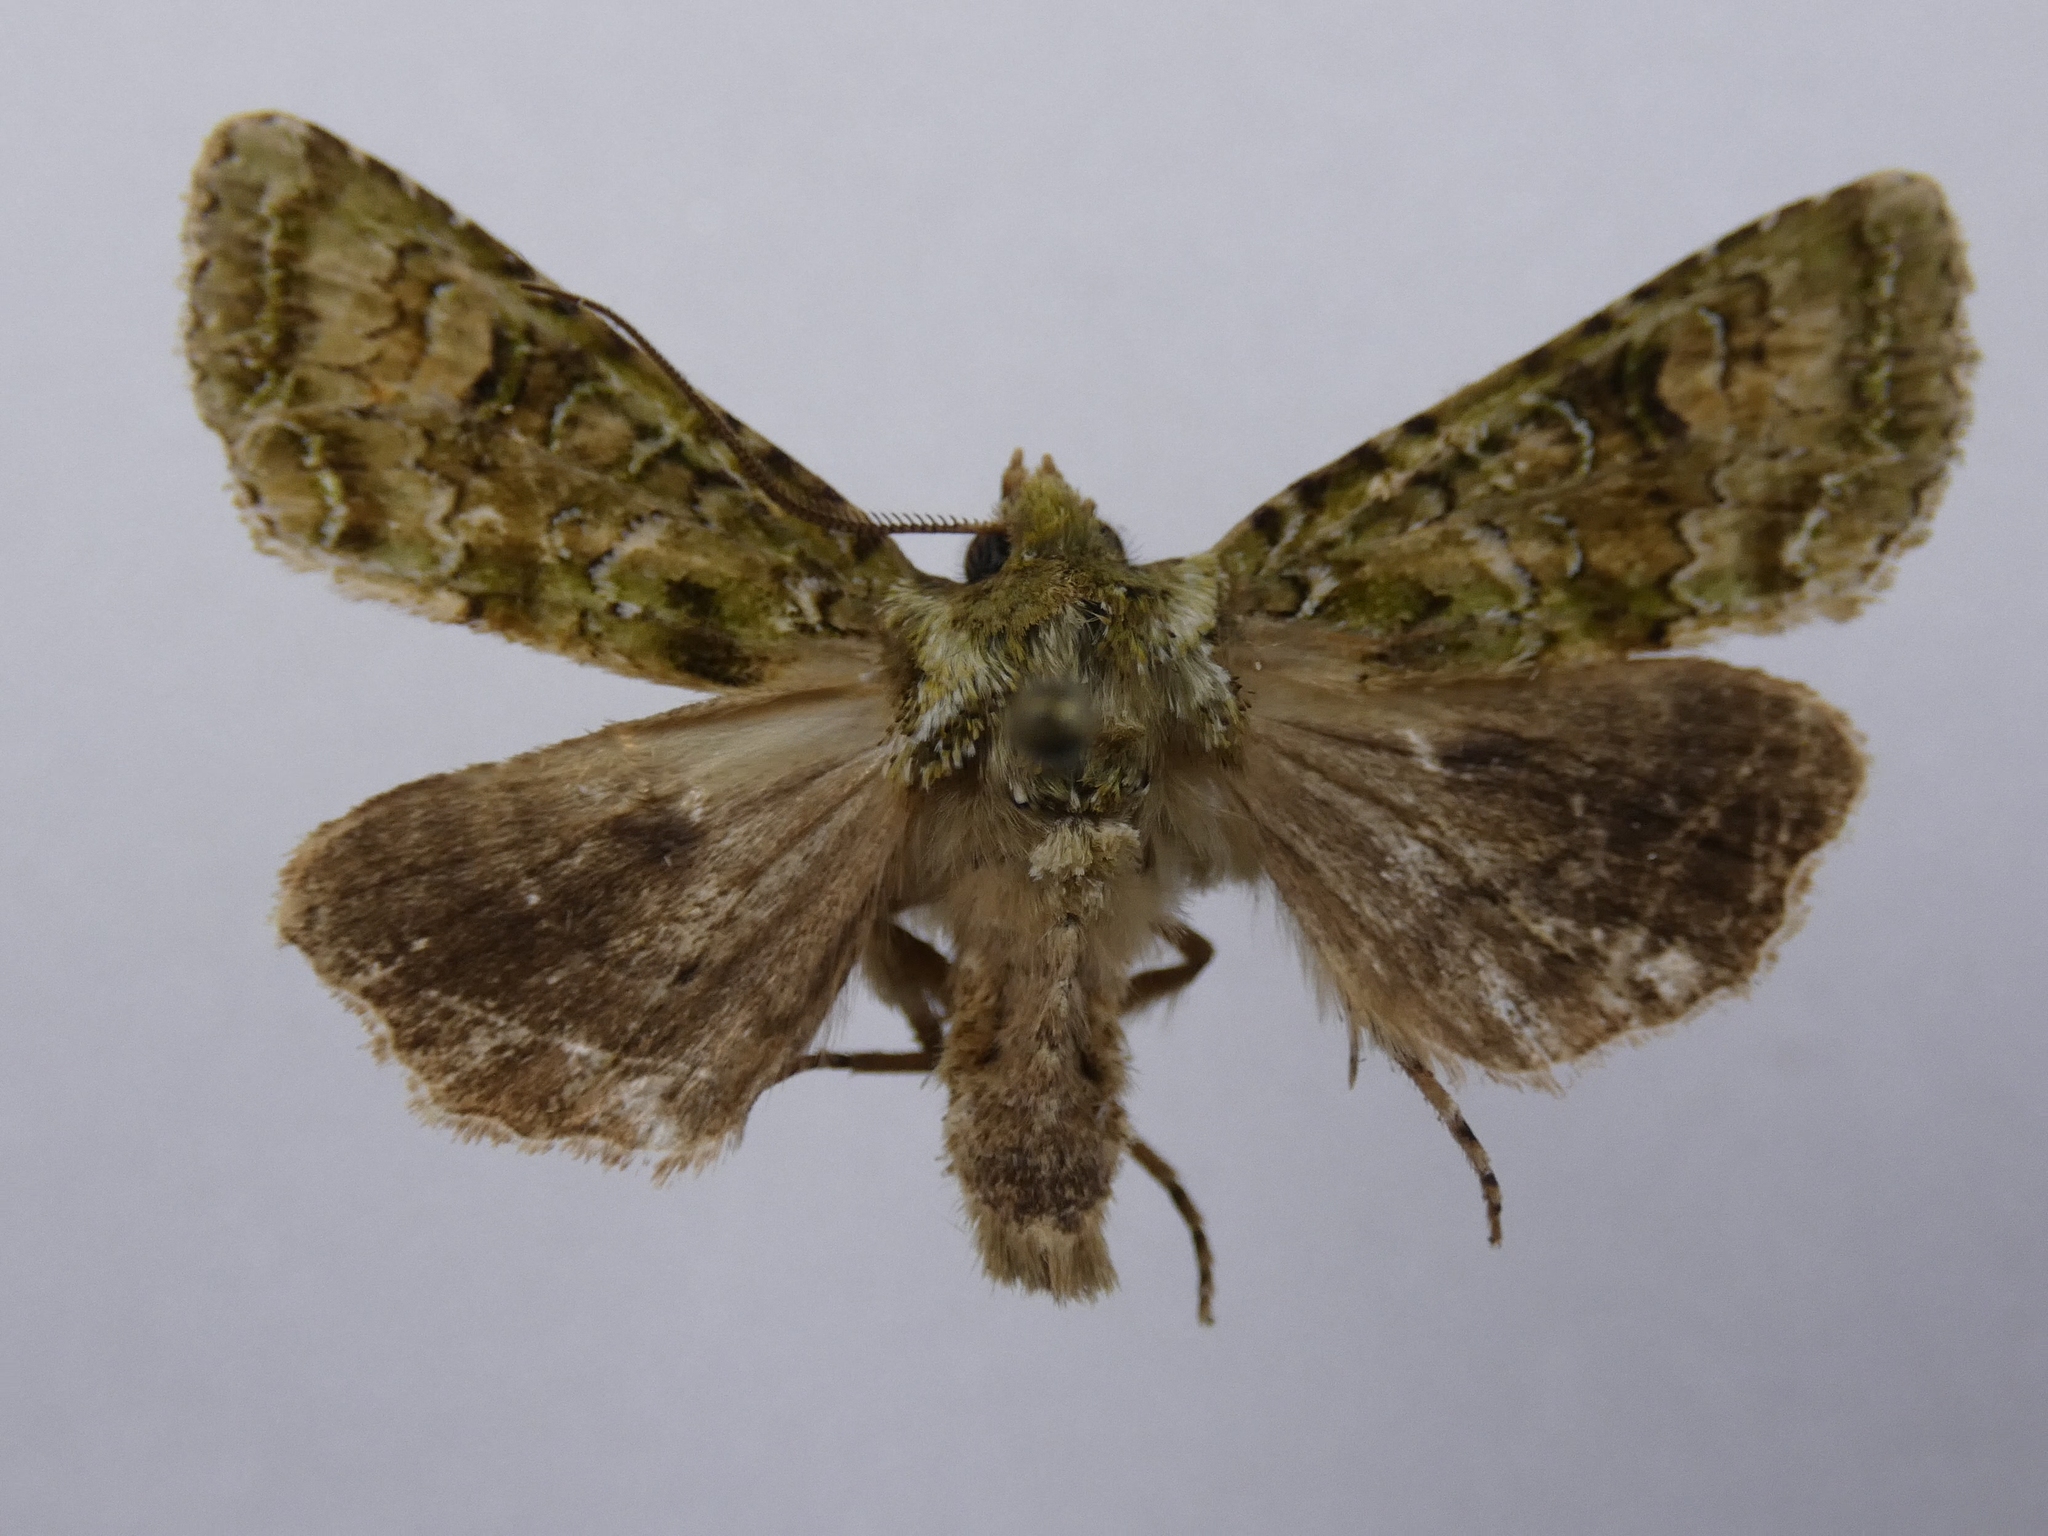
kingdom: Animalia
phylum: Arthropoda
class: Insecta
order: Lepidoptera
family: Noctuidae
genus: Ichneutica
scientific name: Ichneutica
